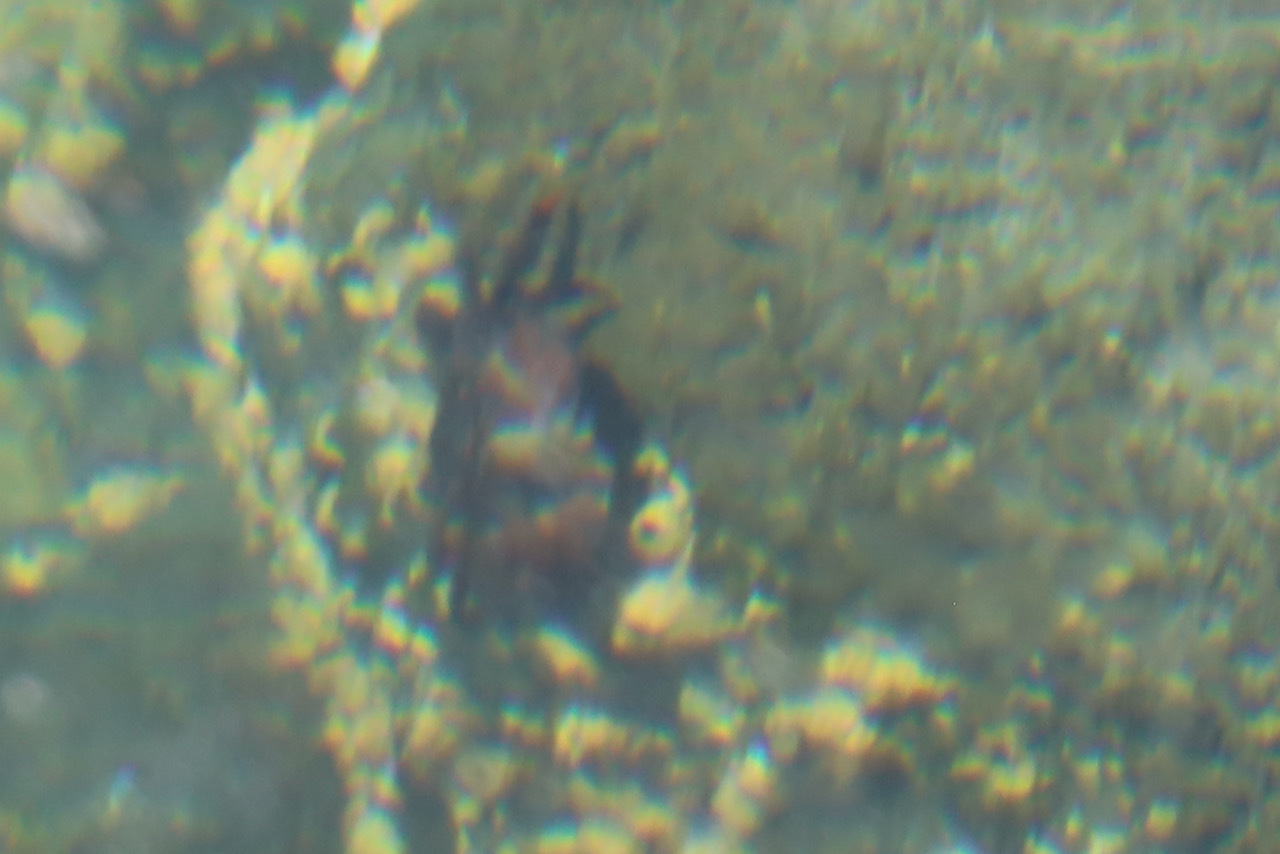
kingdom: Animalia
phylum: Arthropoda
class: Malacostraca
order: Decapoda
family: Varunidae
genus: Hemigrapsus
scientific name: Hemigrapsus nudus
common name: Purple shore crab
